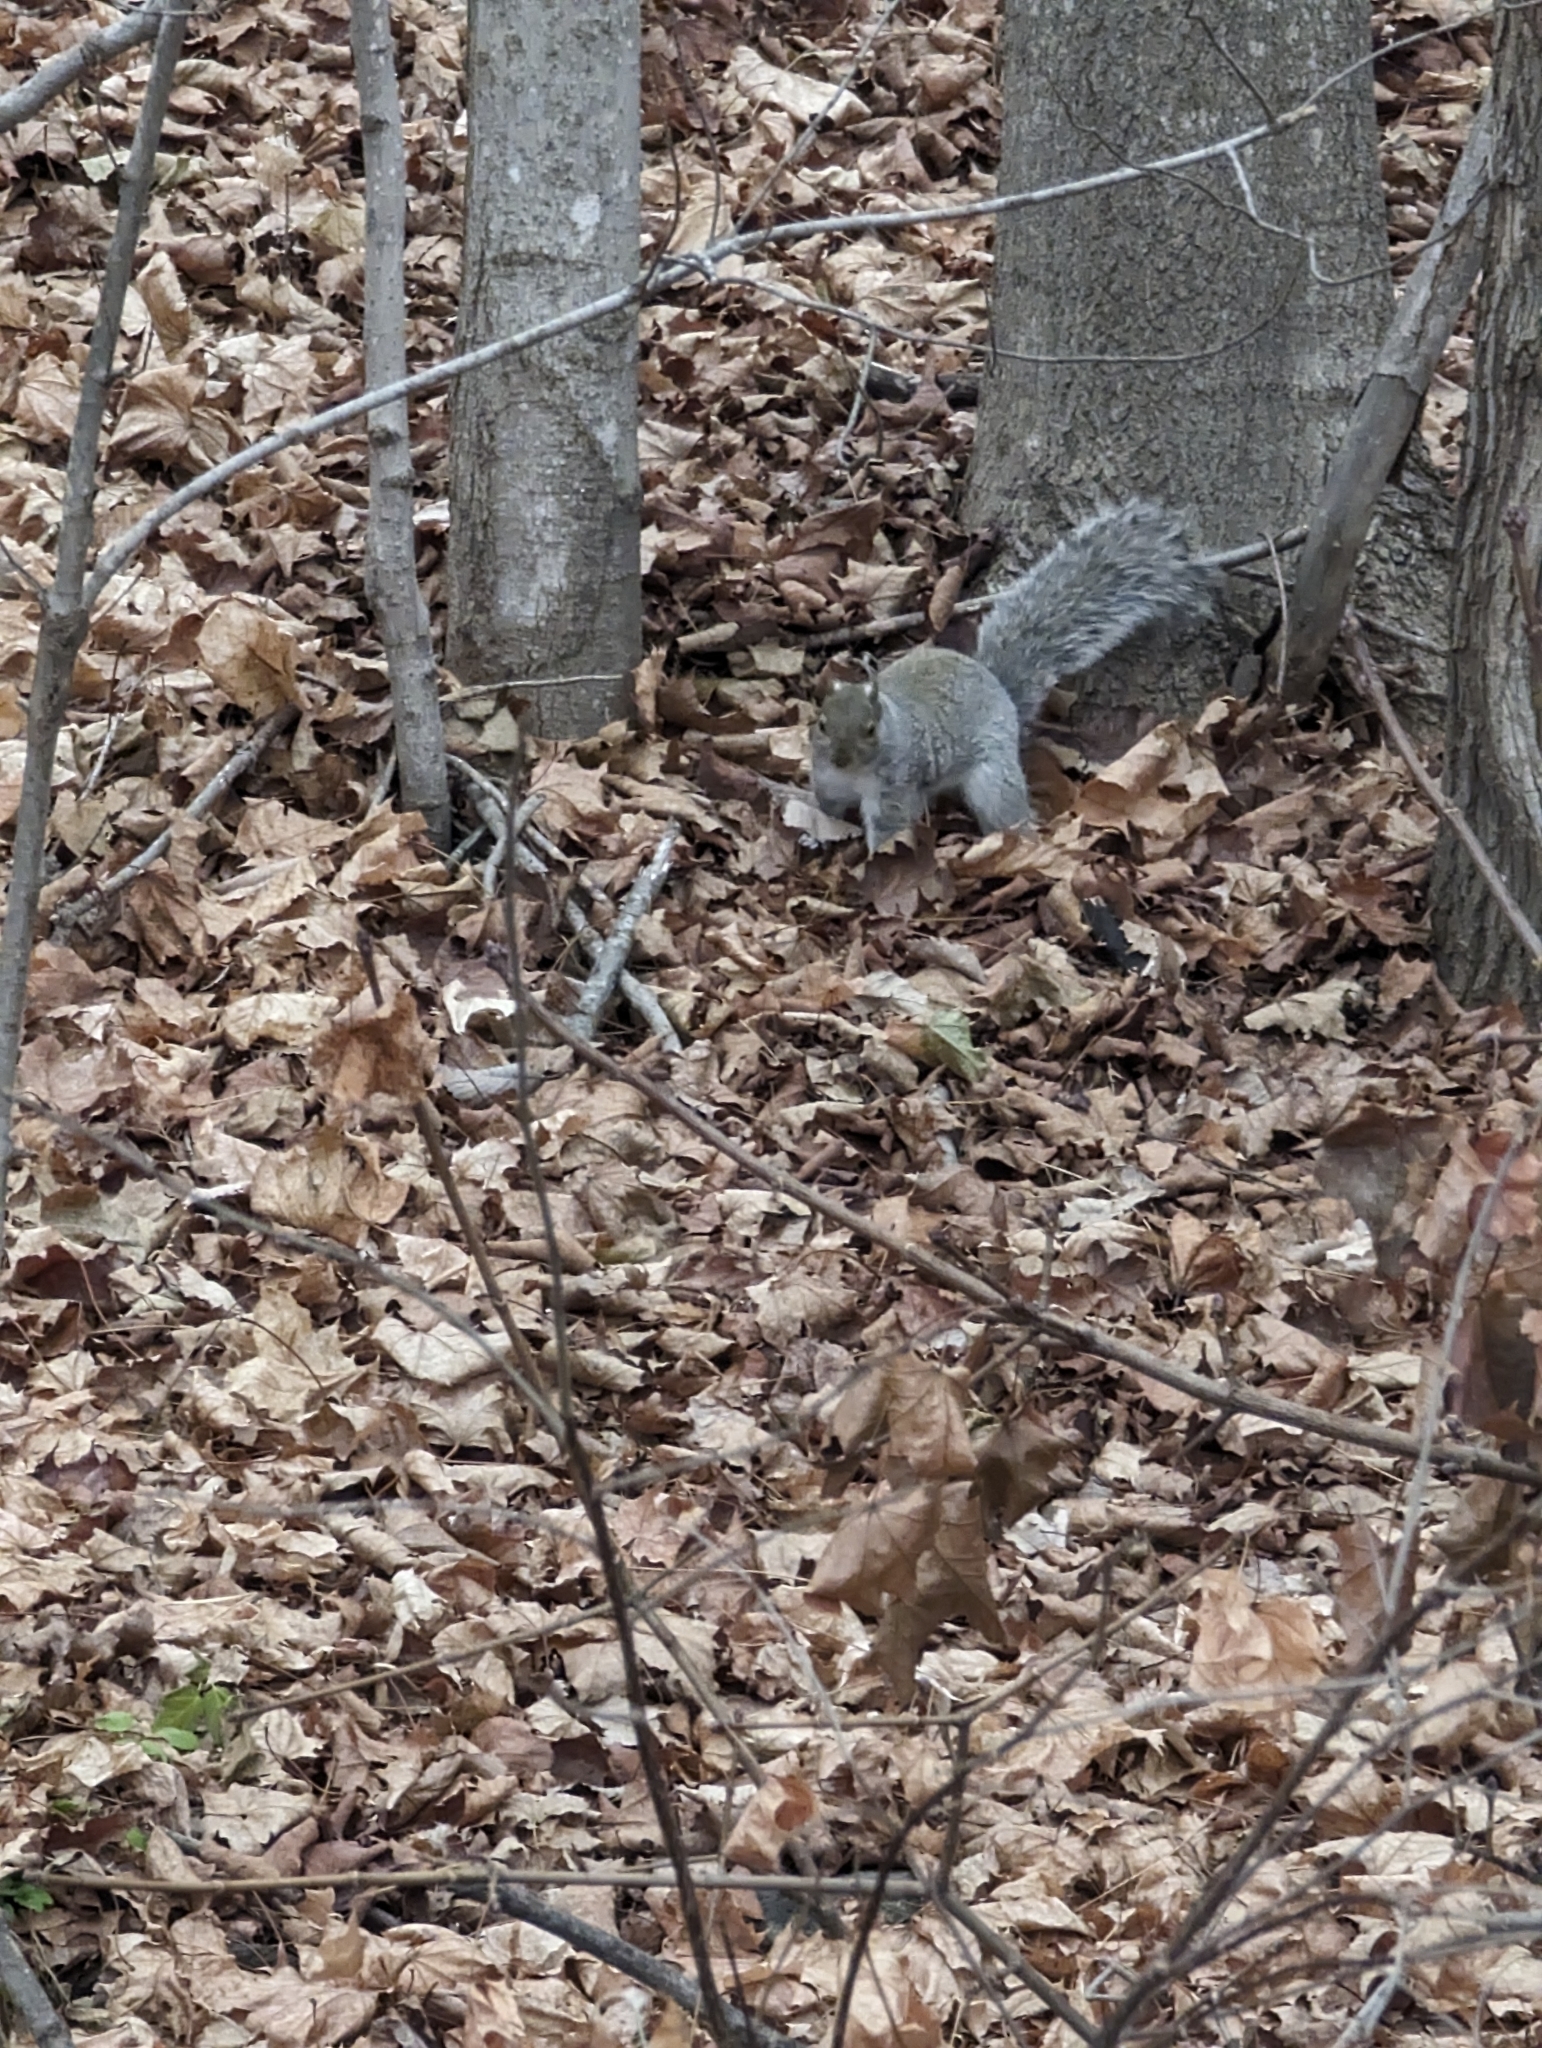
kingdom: Animalia
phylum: Chordata
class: Mammalia
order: Rodentia
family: Sciuridae
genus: Sciurus
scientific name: Sciurus carolinensis
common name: Eastern gray squirrel
